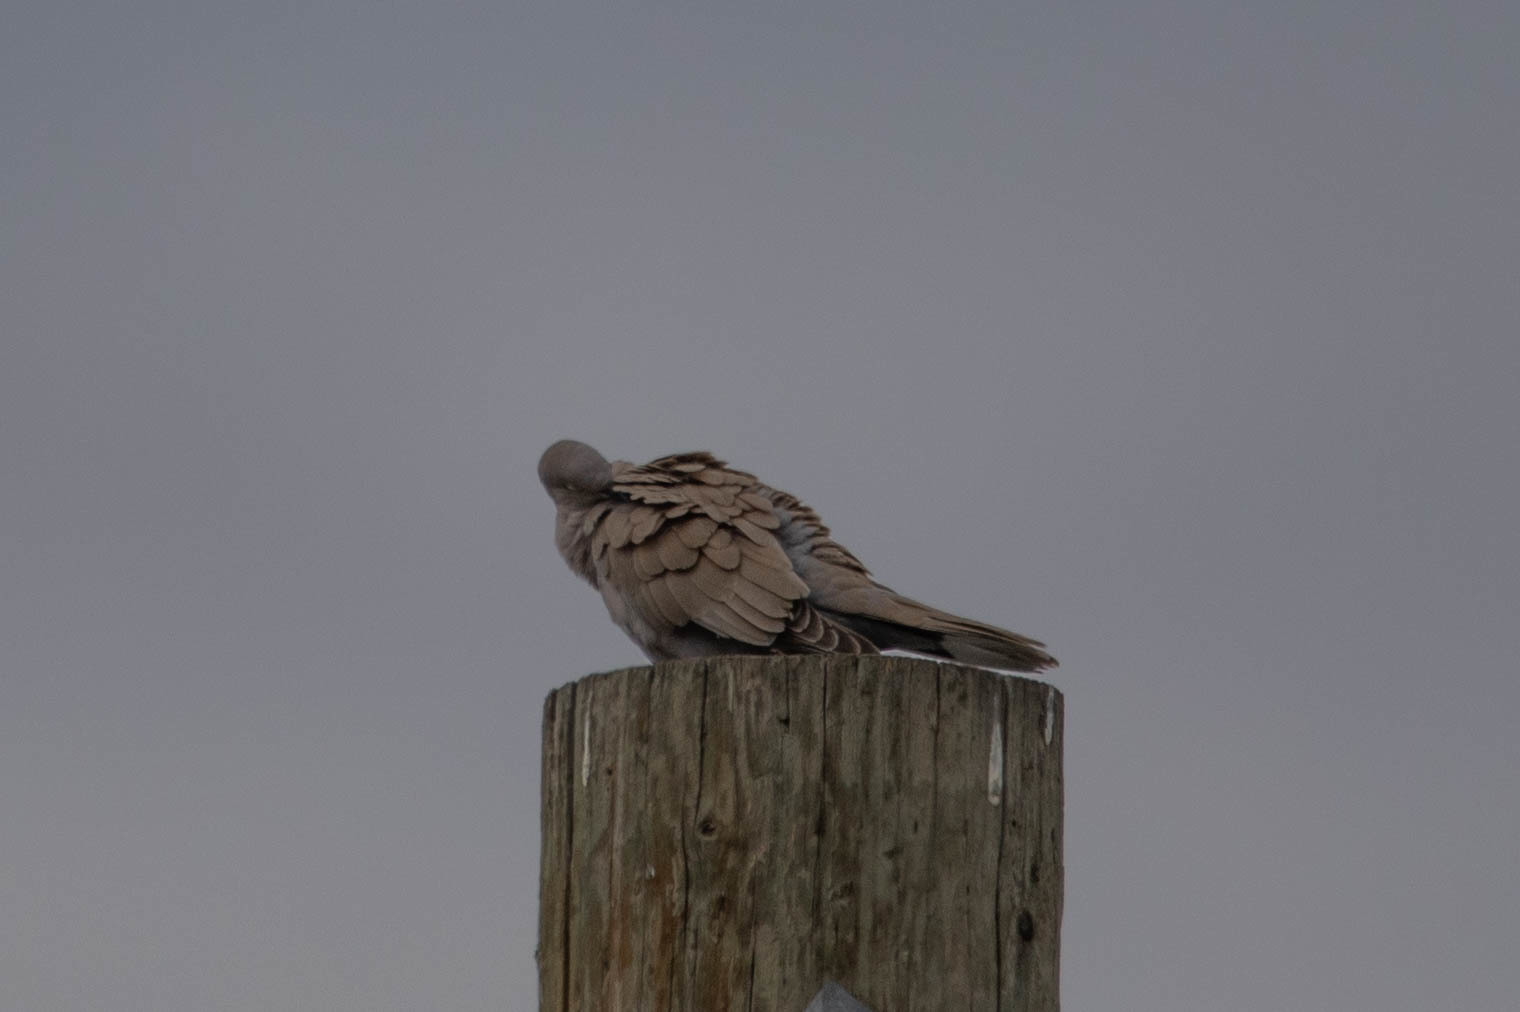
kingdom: Animalia
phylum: Chordata
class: Aves
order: Columbiformes
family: Columbidae
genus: Zenaida
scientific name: Zenaida macroura
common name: Mourning dove
